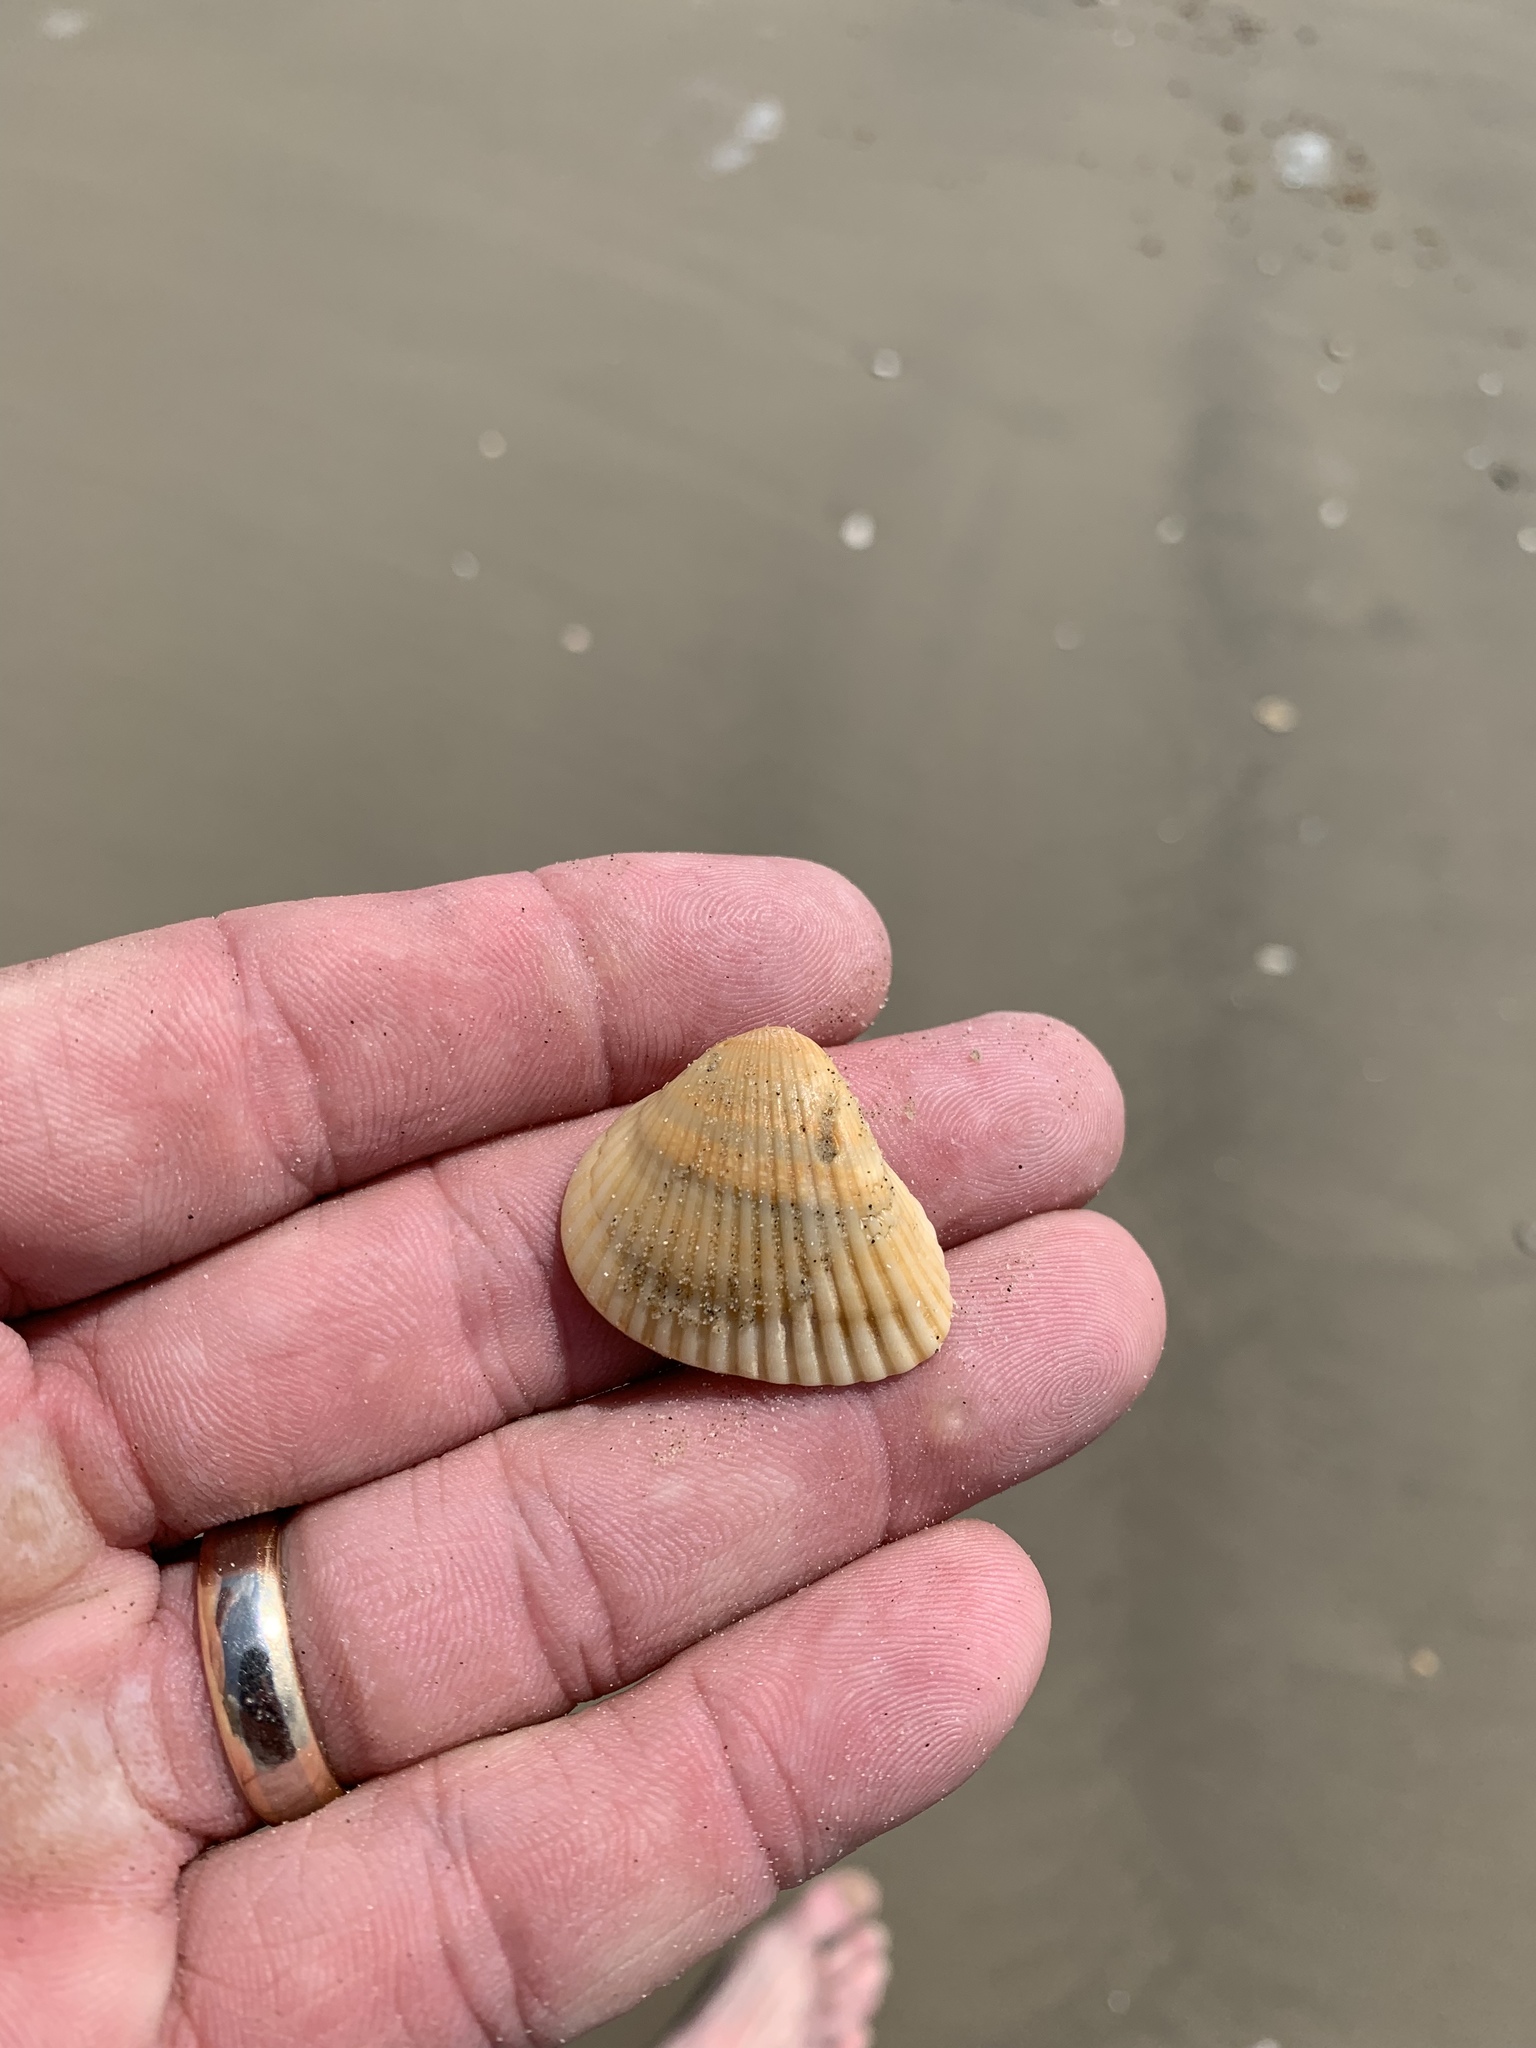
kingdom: Animalia
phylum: Mollusca
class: Bivalvia
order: Arcida
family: Noetiidae
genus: Noetia
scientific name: Noetia ponderosa
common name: Ponderous ark
